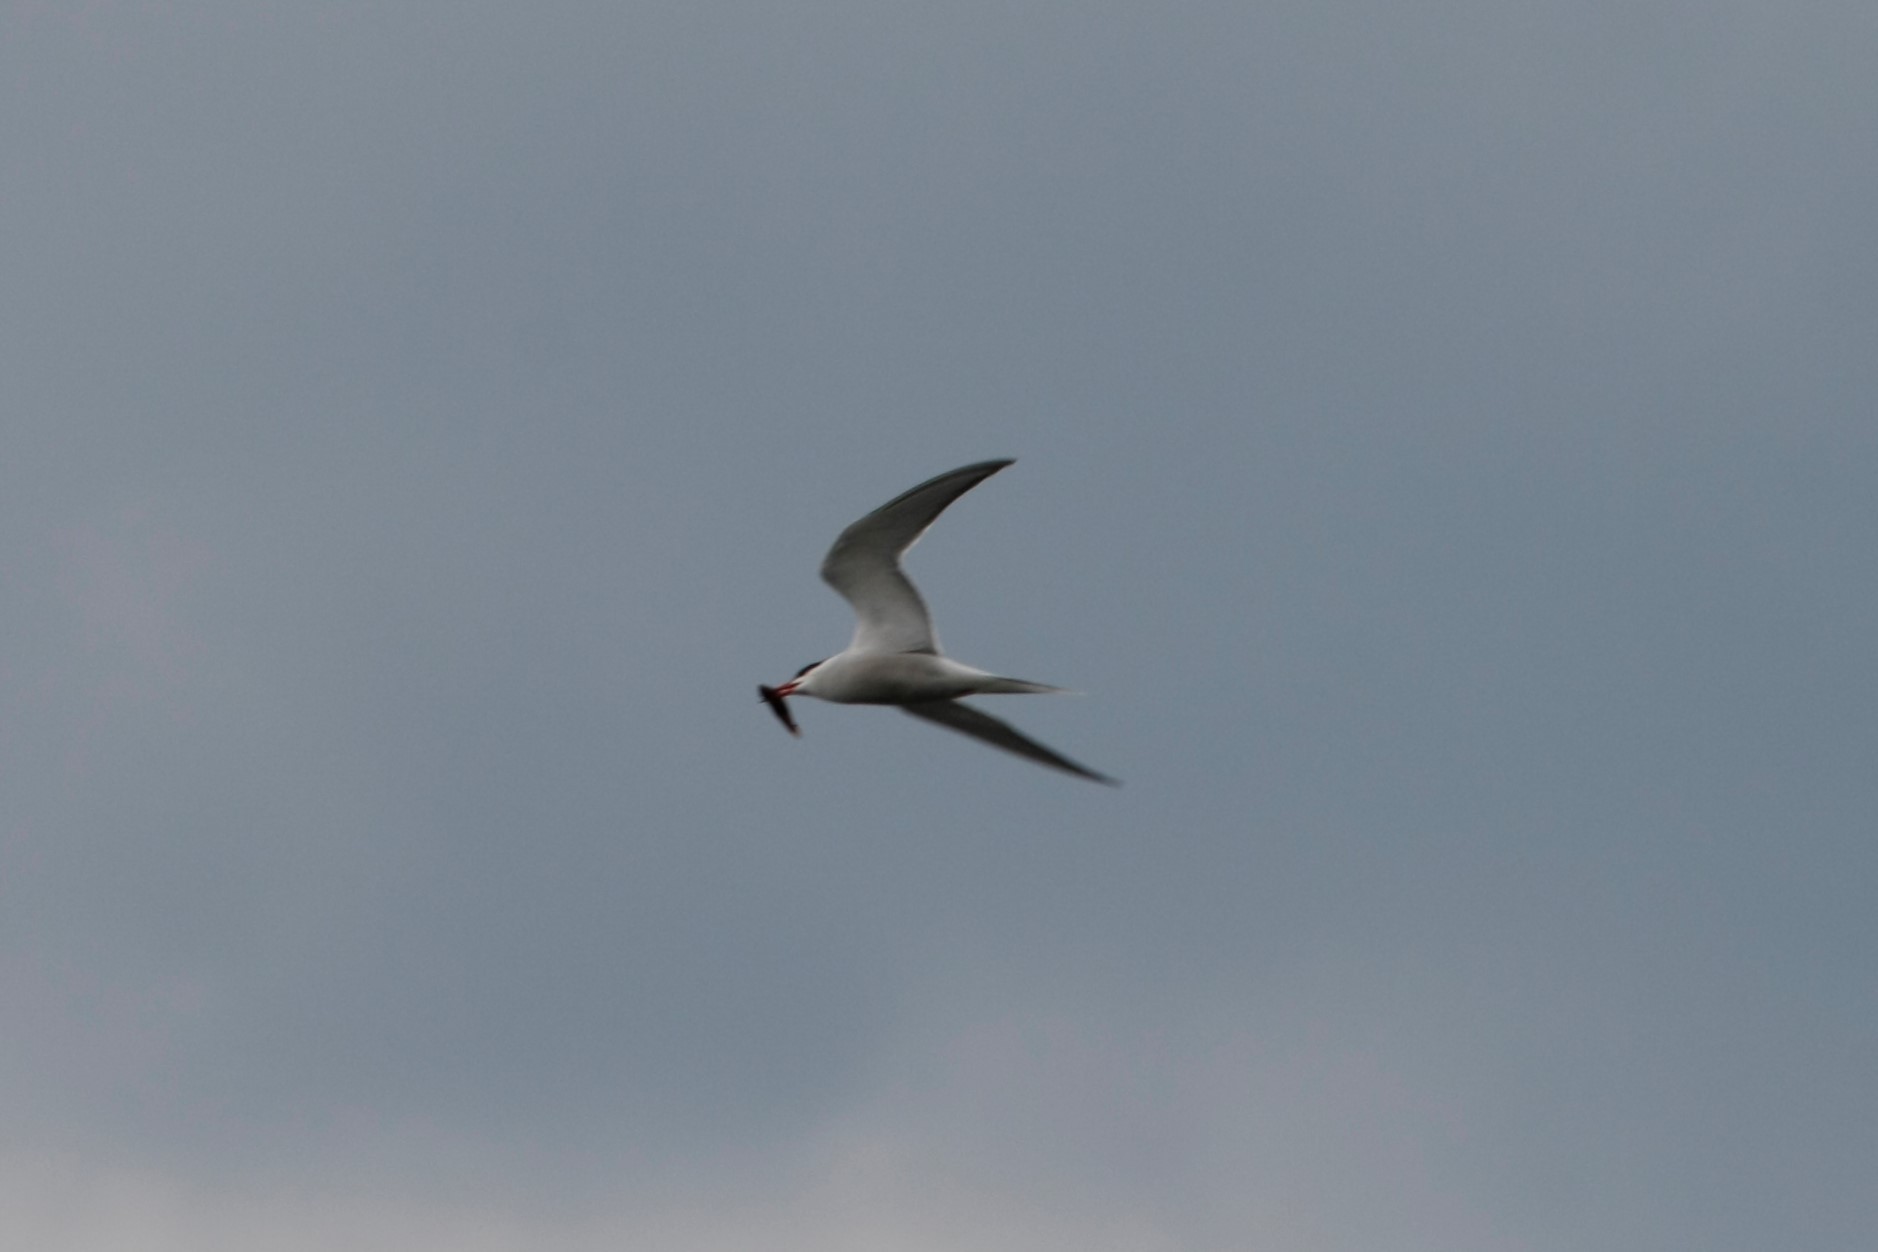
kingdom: Animalia
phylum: Chordata
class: Aves
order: Charadriiformes
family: Laridae
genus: Sterna
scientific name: Sterna hirundo
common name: Common tern
